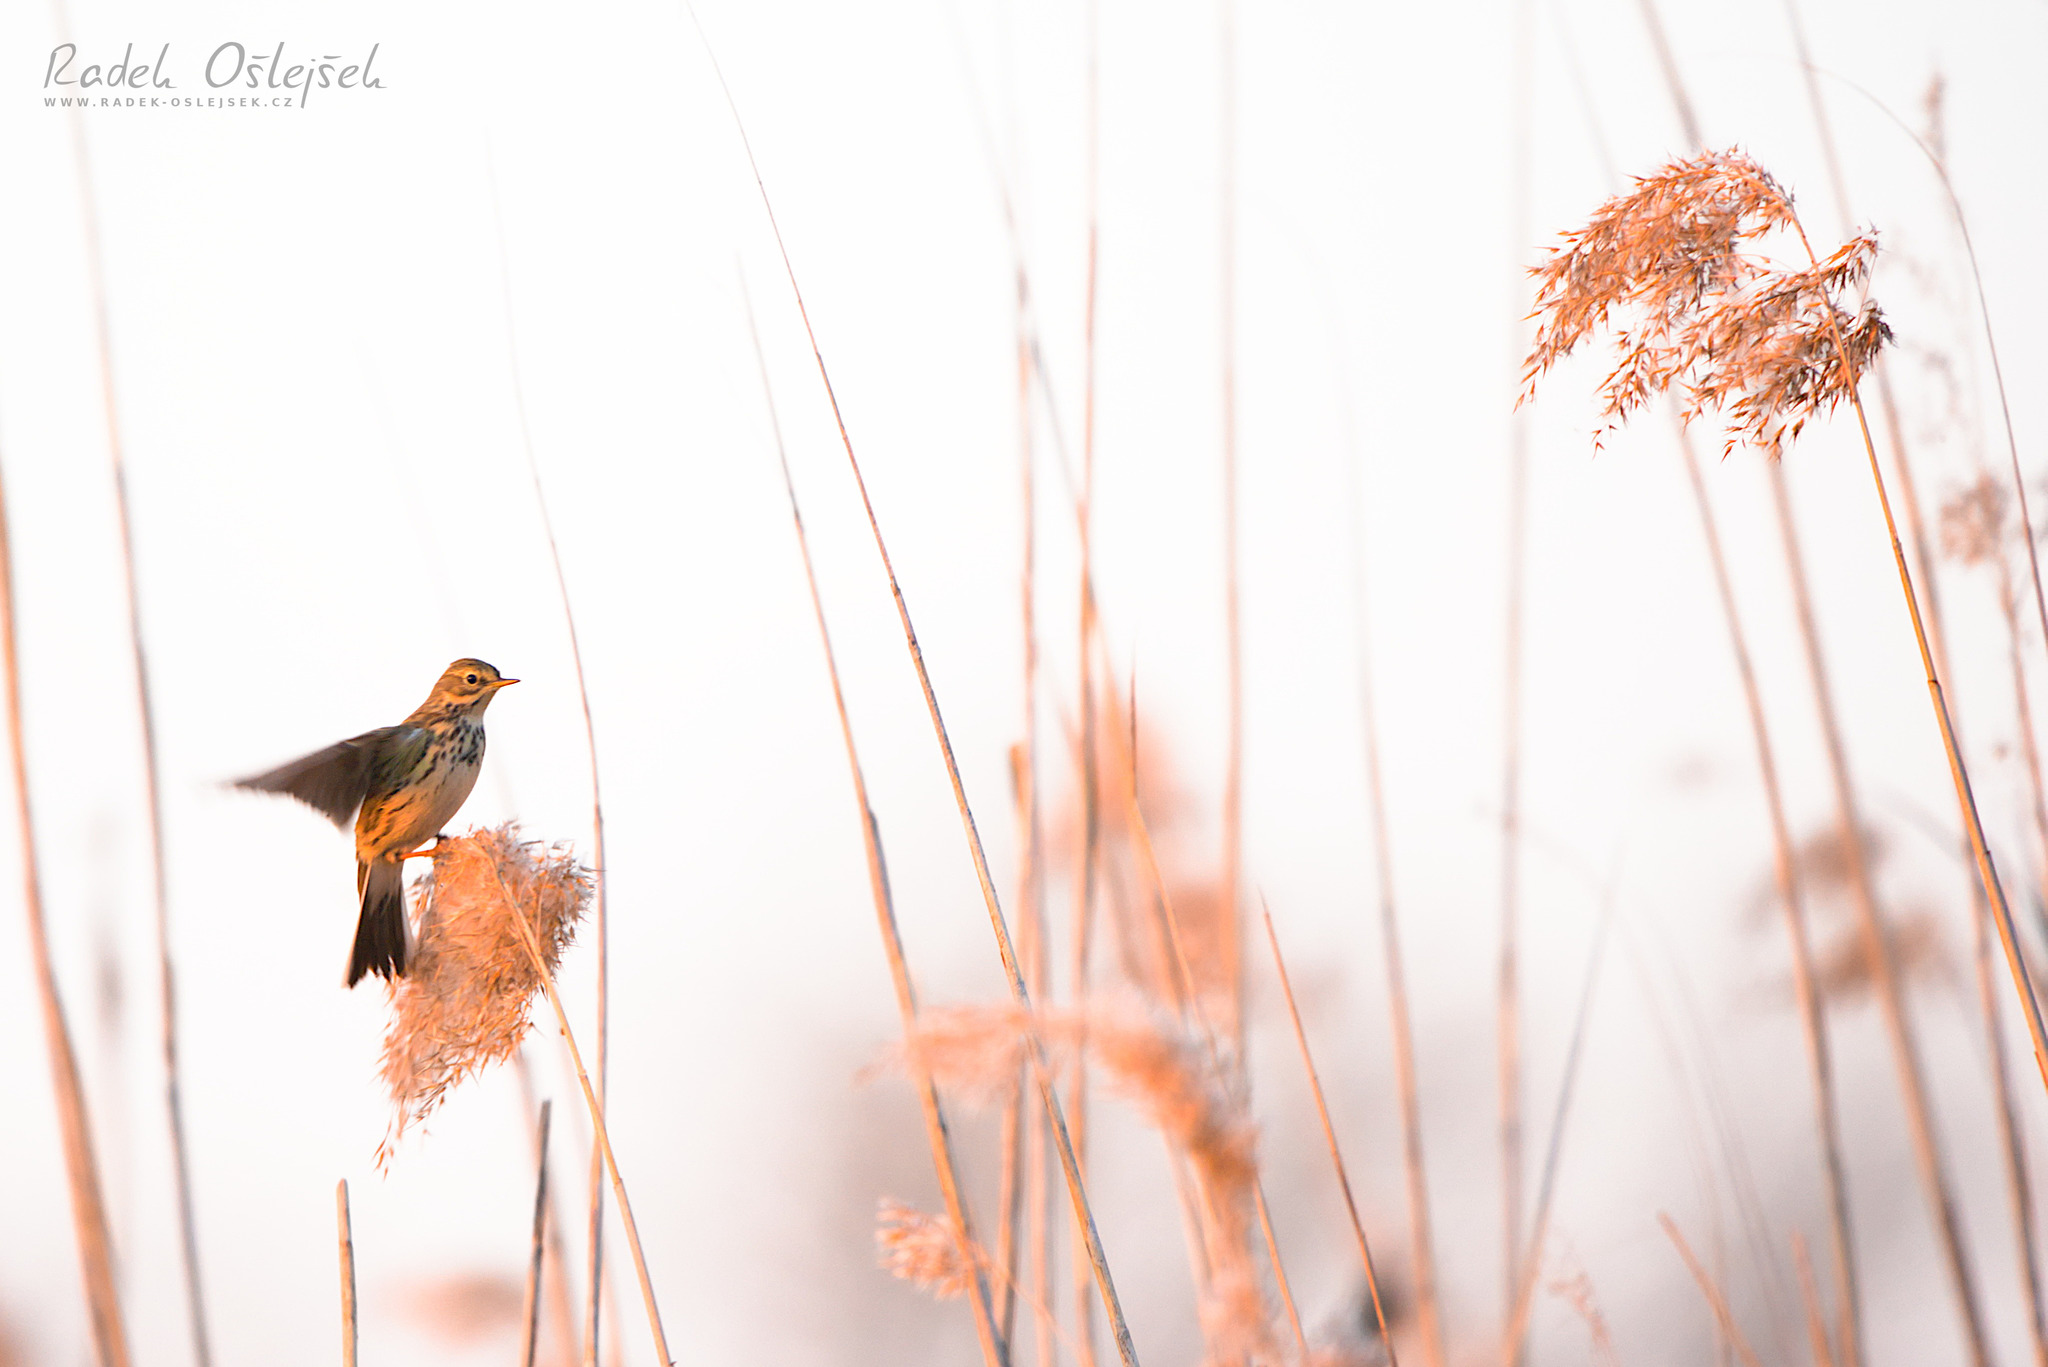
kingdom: Animalia
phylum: Chordata
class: Aves
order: Passeriformes
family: Motacillidae
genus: Anthus
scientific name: Anthus pratensis
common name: Meadow pipit
